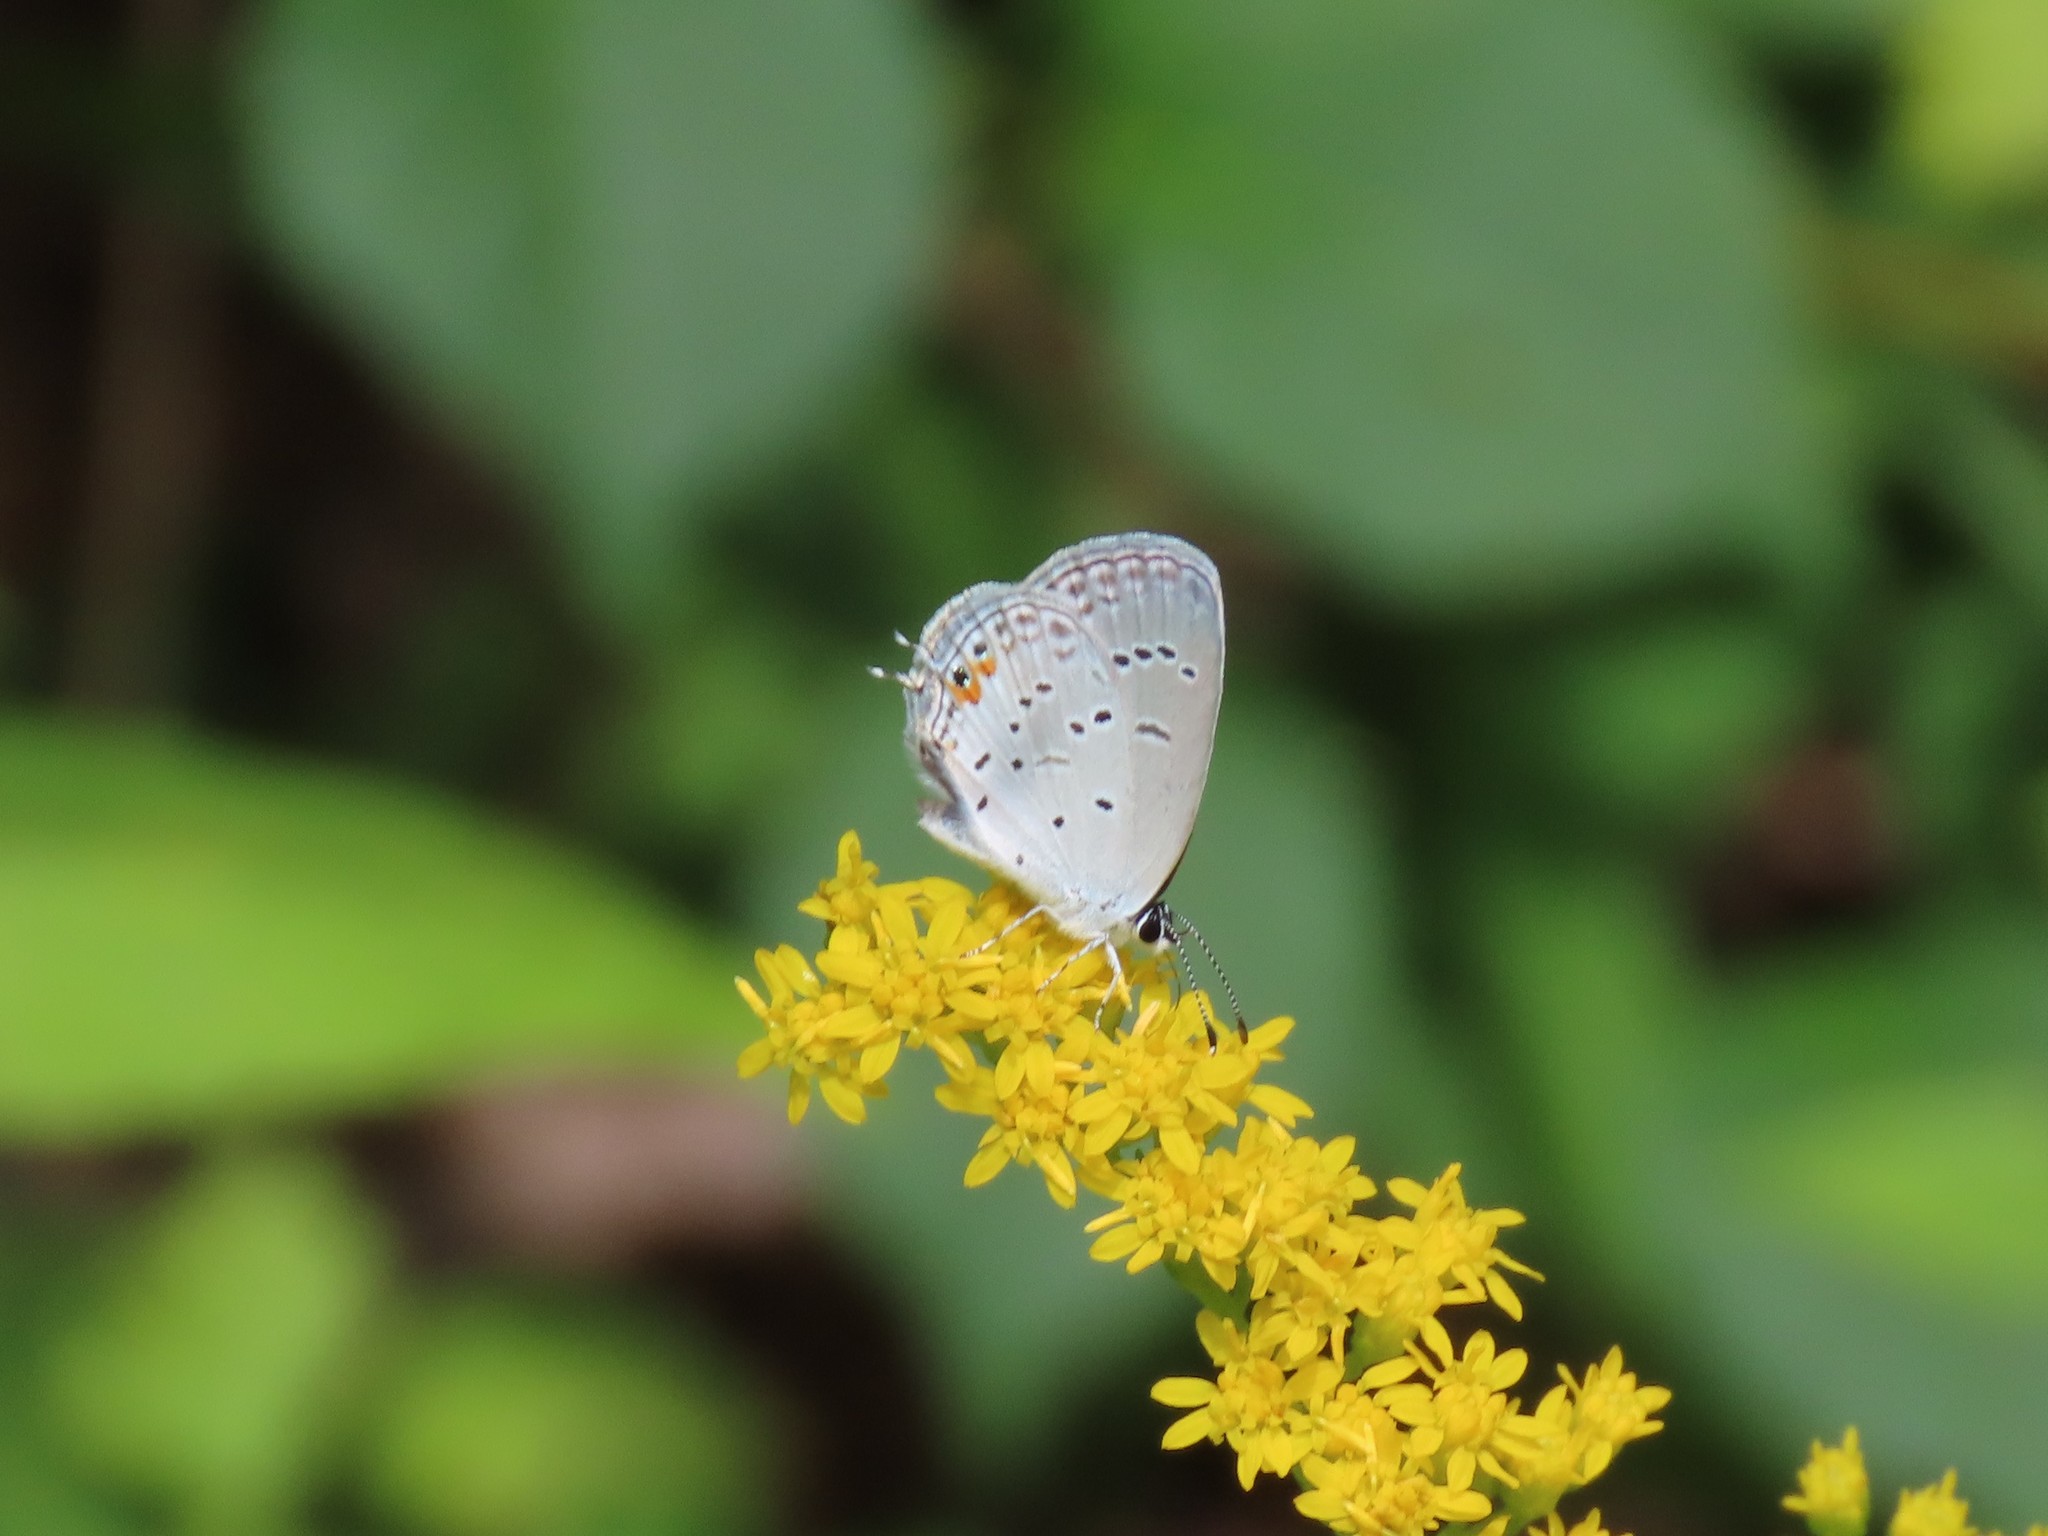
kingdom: Animalia
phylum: Arthropoda
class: Insecta
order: Lepidoptera
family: Lycaenidae
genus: Elkalyce
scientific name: Elkalyce comyntas
